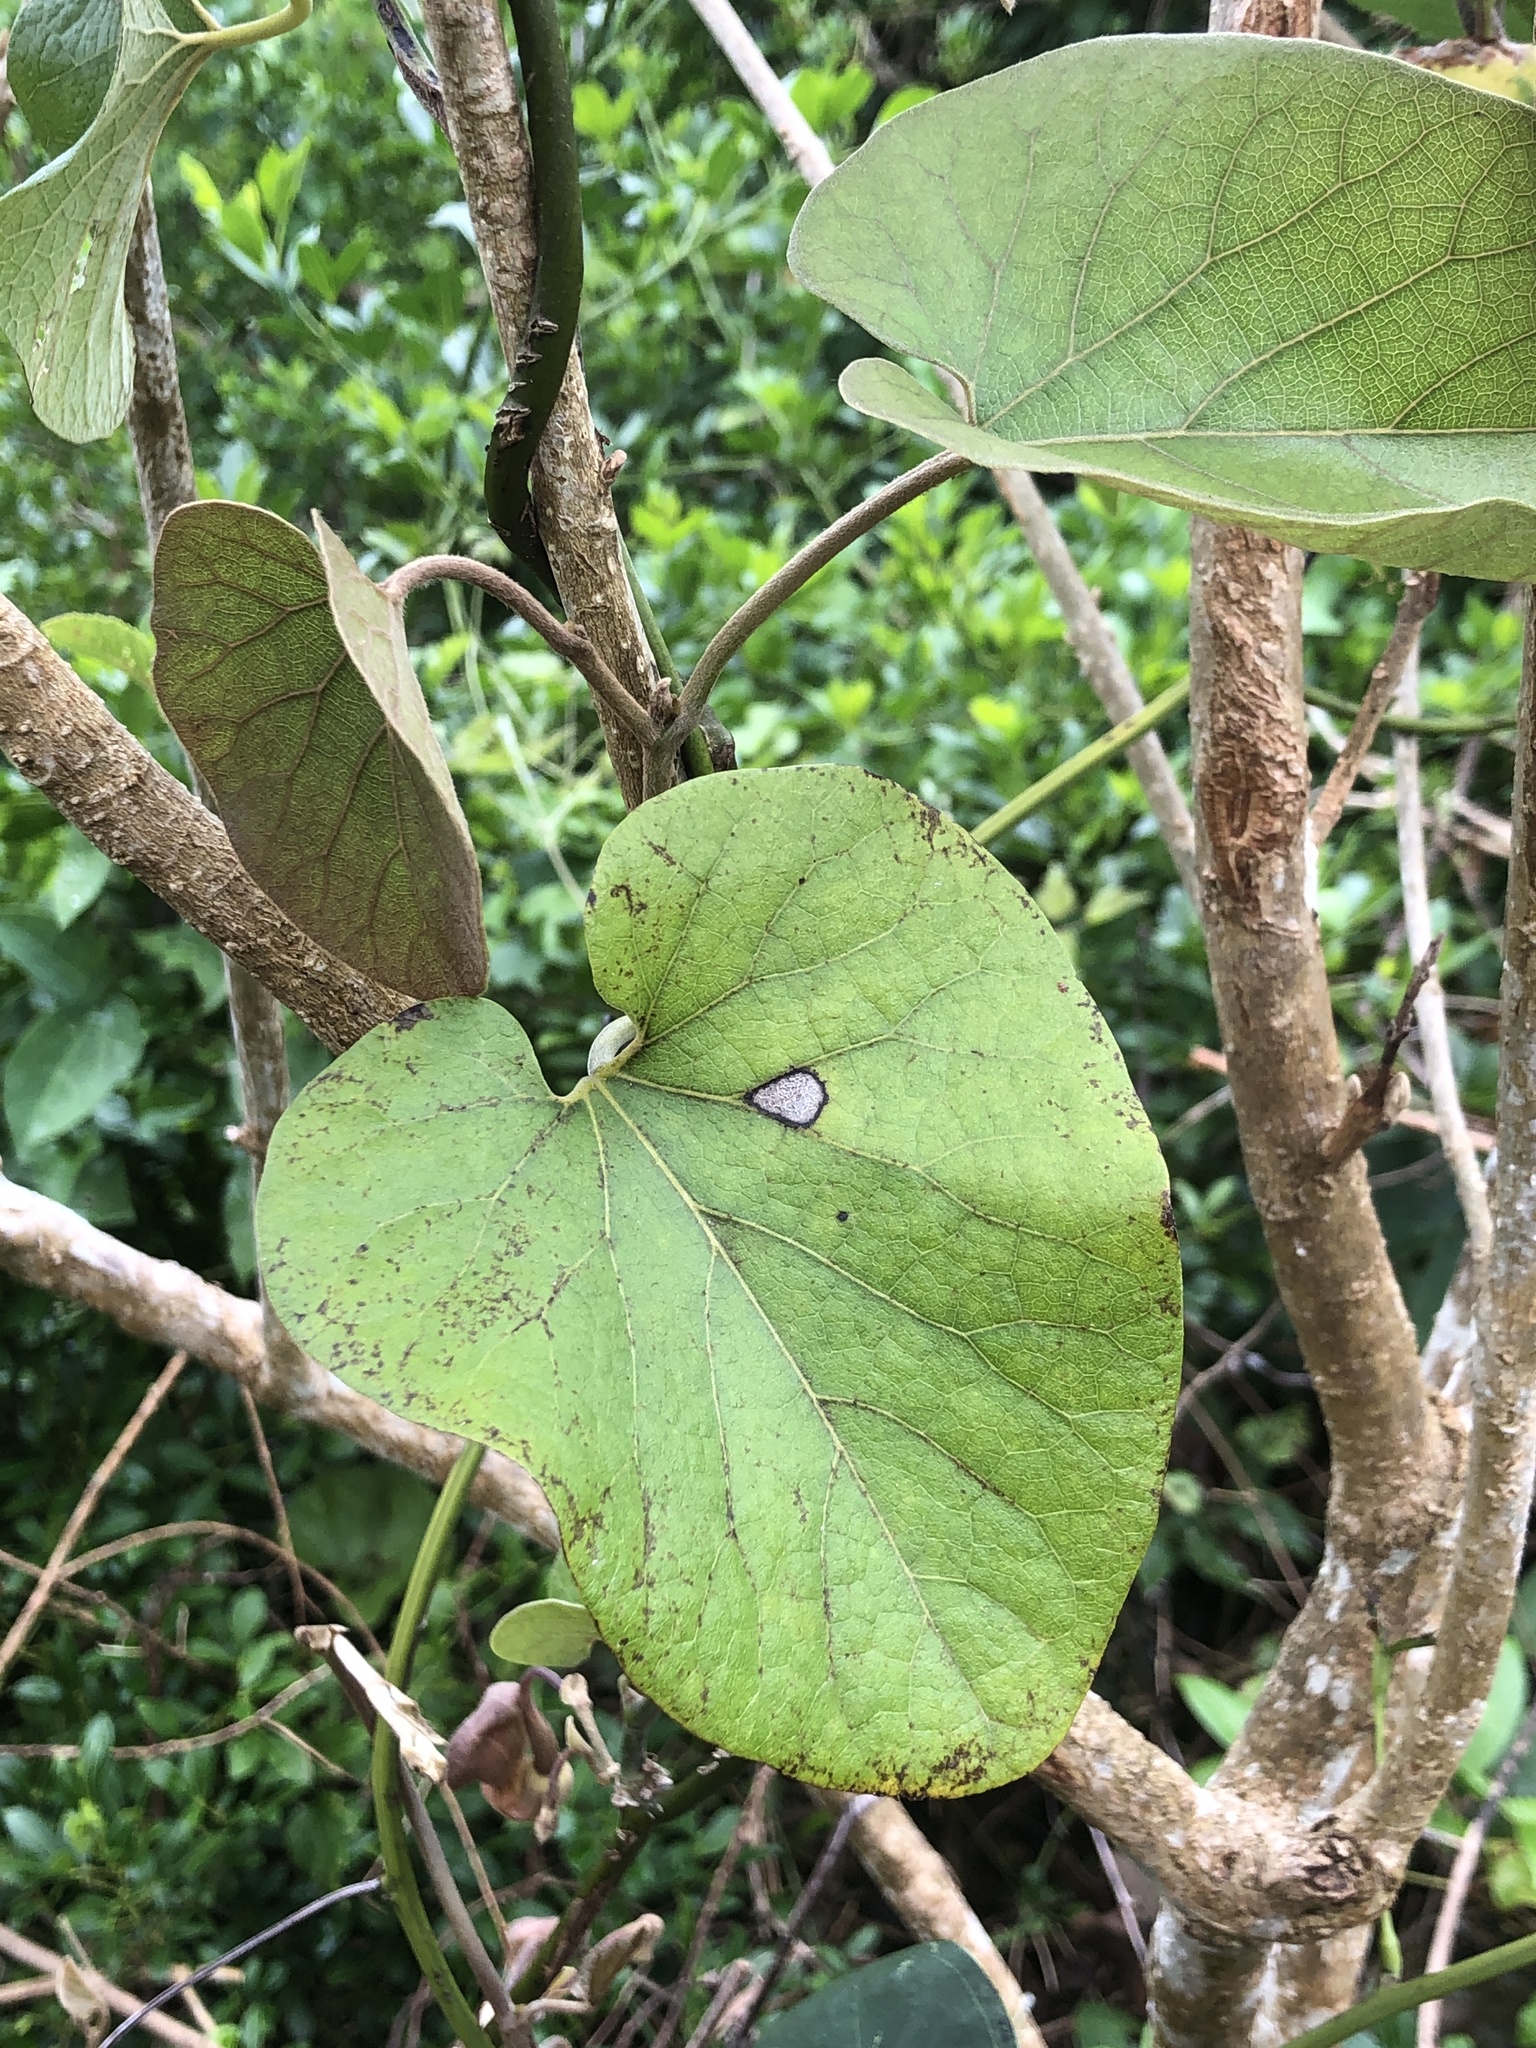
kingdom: Plantae
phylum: Tracheophyta
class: Magnoliopsida
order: Piperales
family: Aristolochiaceae
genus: Isotrema
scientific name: Isotrema liukiuense
